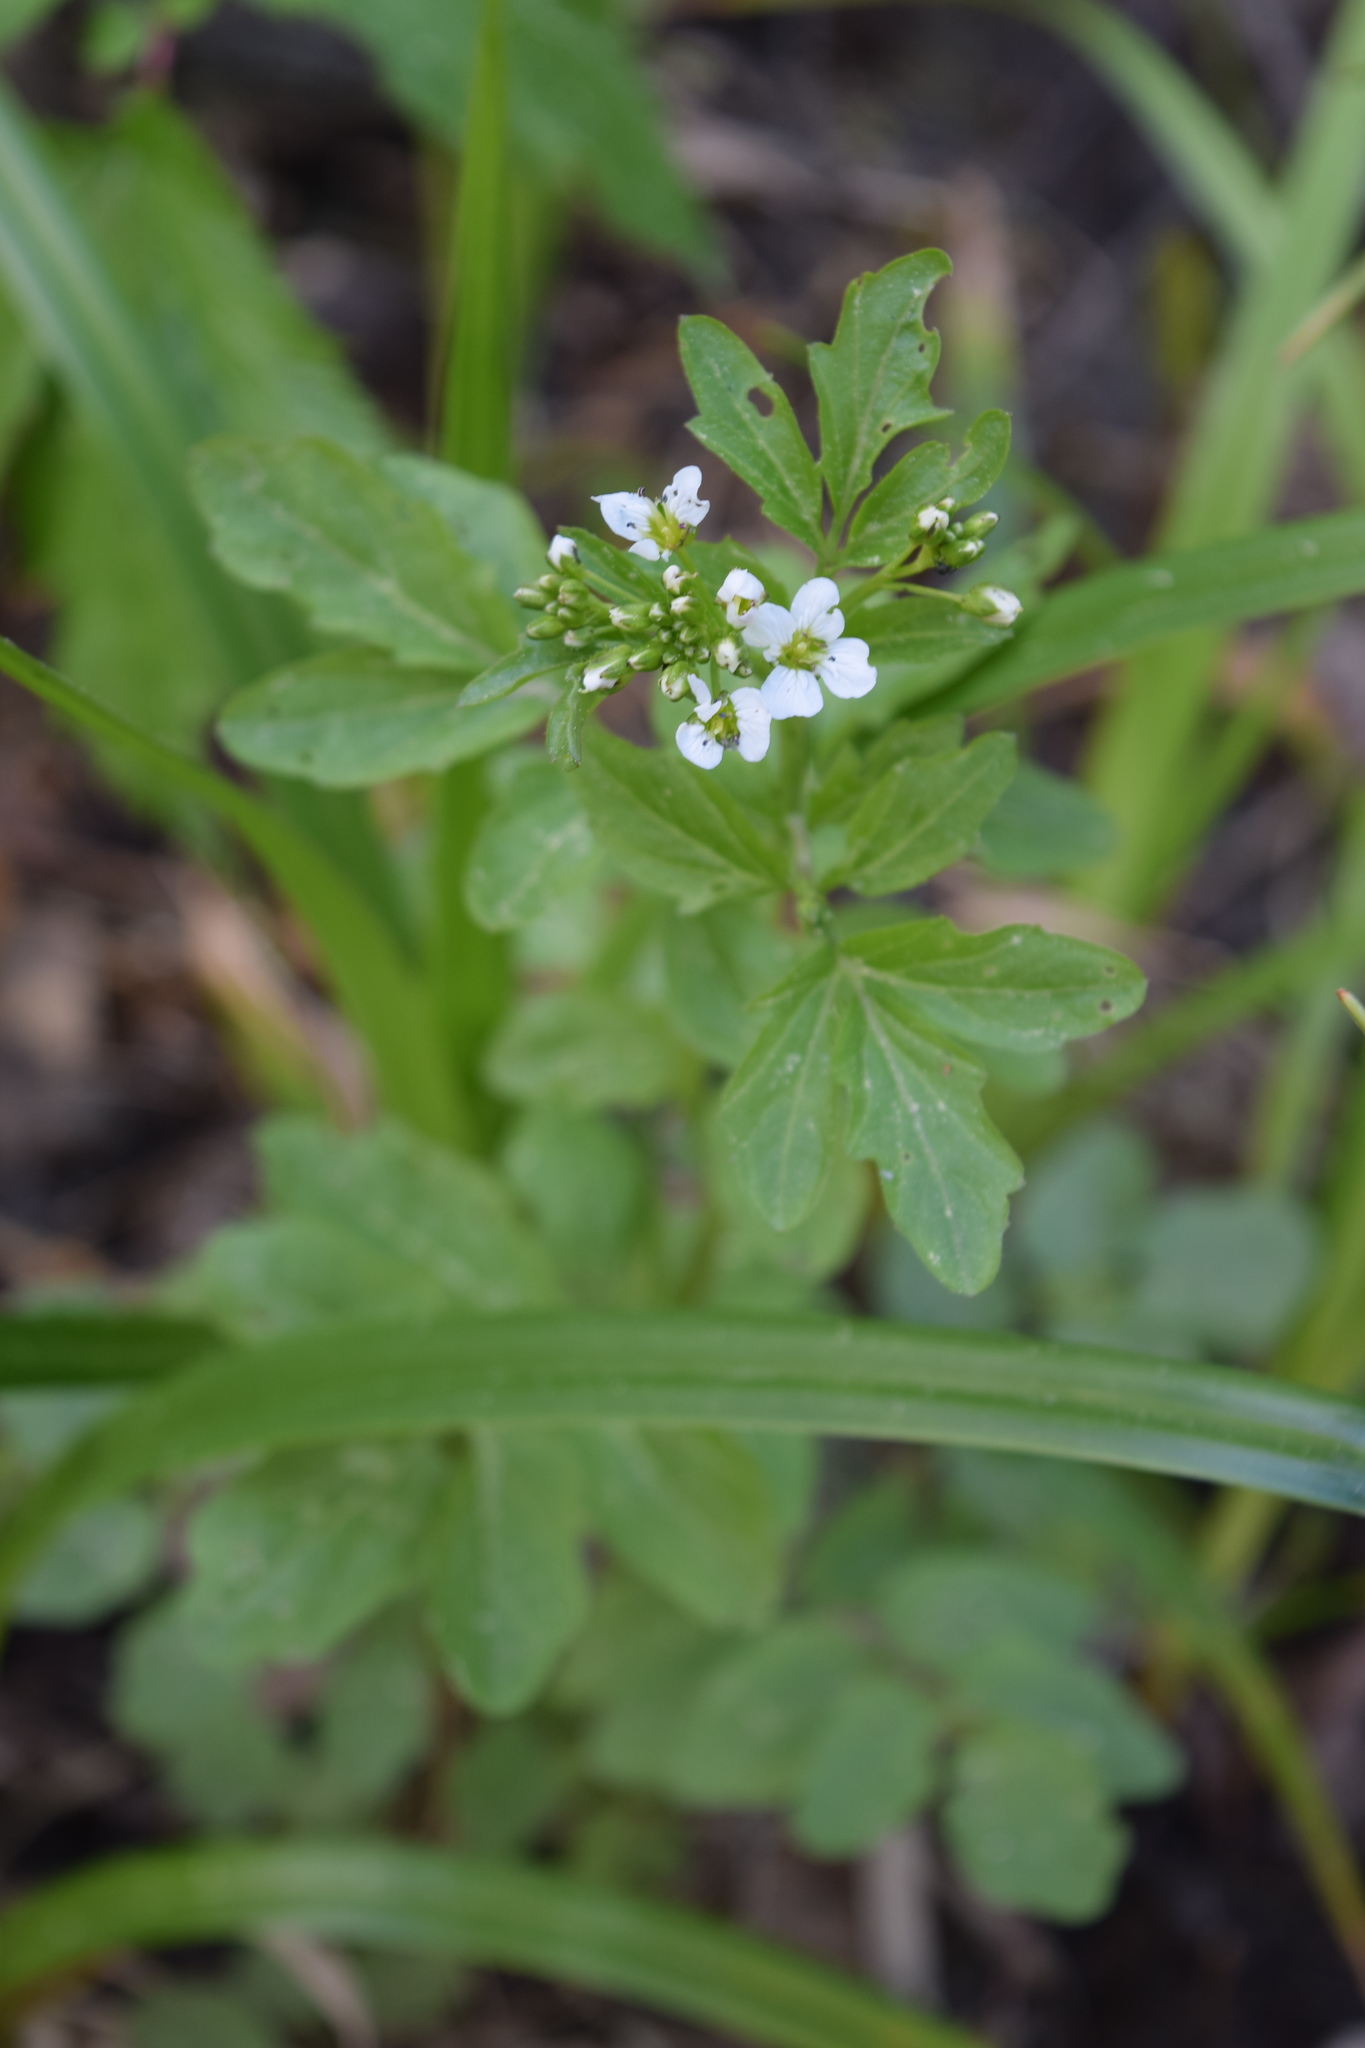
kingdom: Plantae
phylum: Tracheophyta
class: Magnoliopsida
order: Brassicales
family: Brassicaceae
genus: Cardamine
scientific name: Cardamine amara
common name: Large bitter-cress
